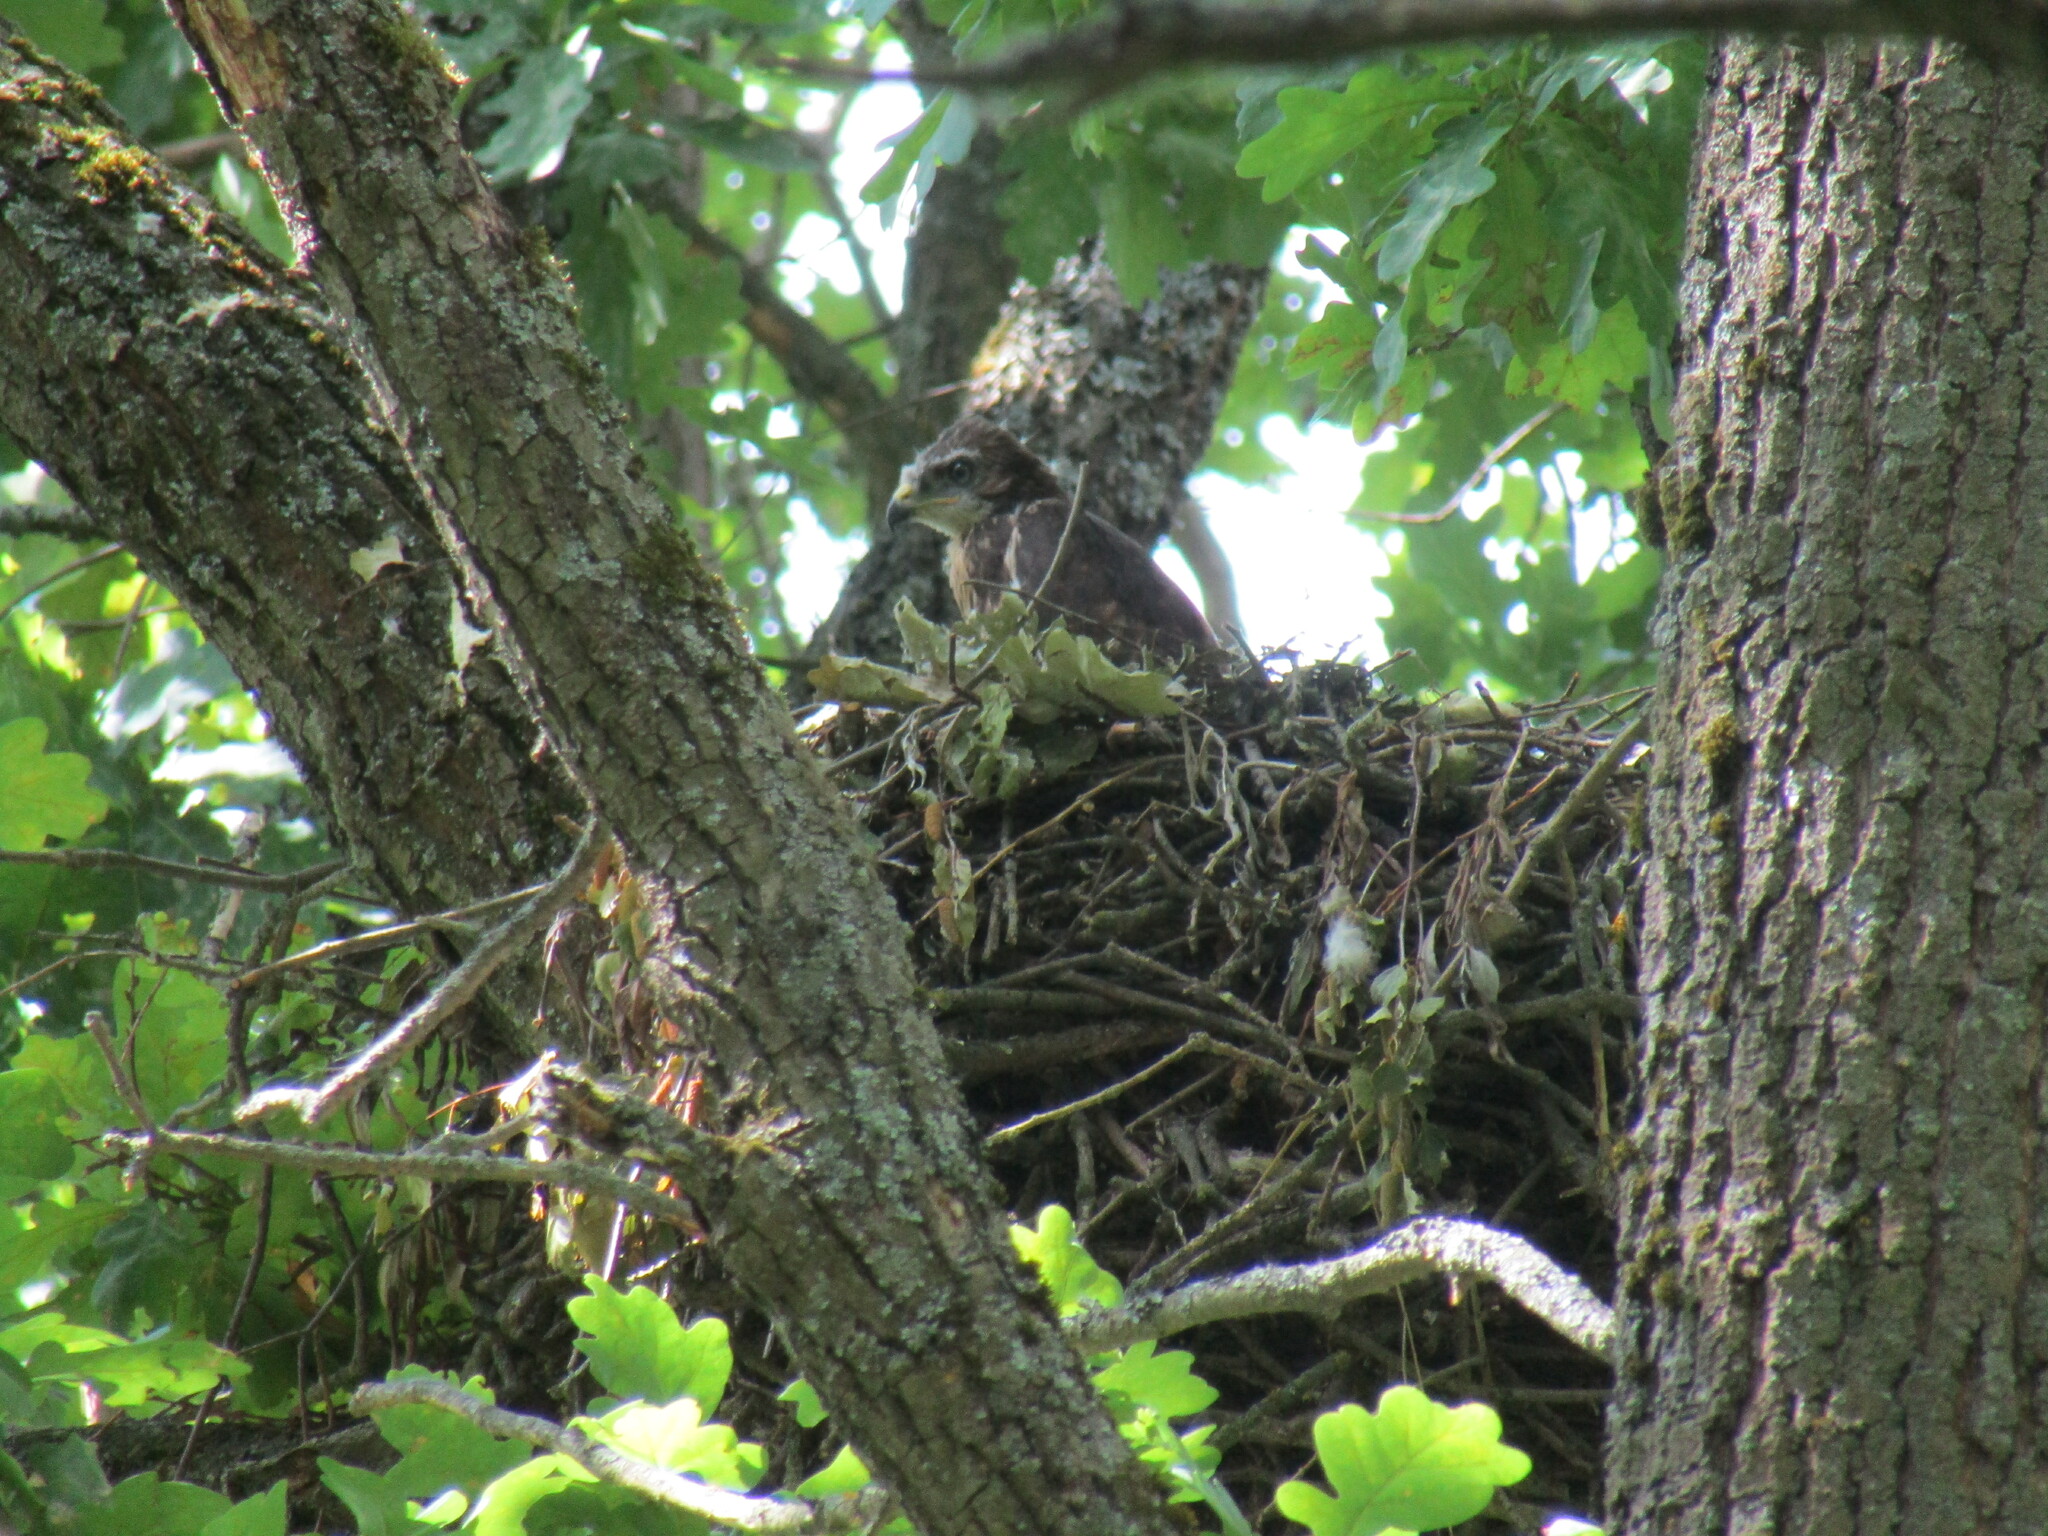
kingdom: Animalia
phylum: Chordata
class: Aves
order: Accipitriformes
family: Accipitridae
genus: Buteo
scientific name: Buteo buteo
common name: Common buzzard
